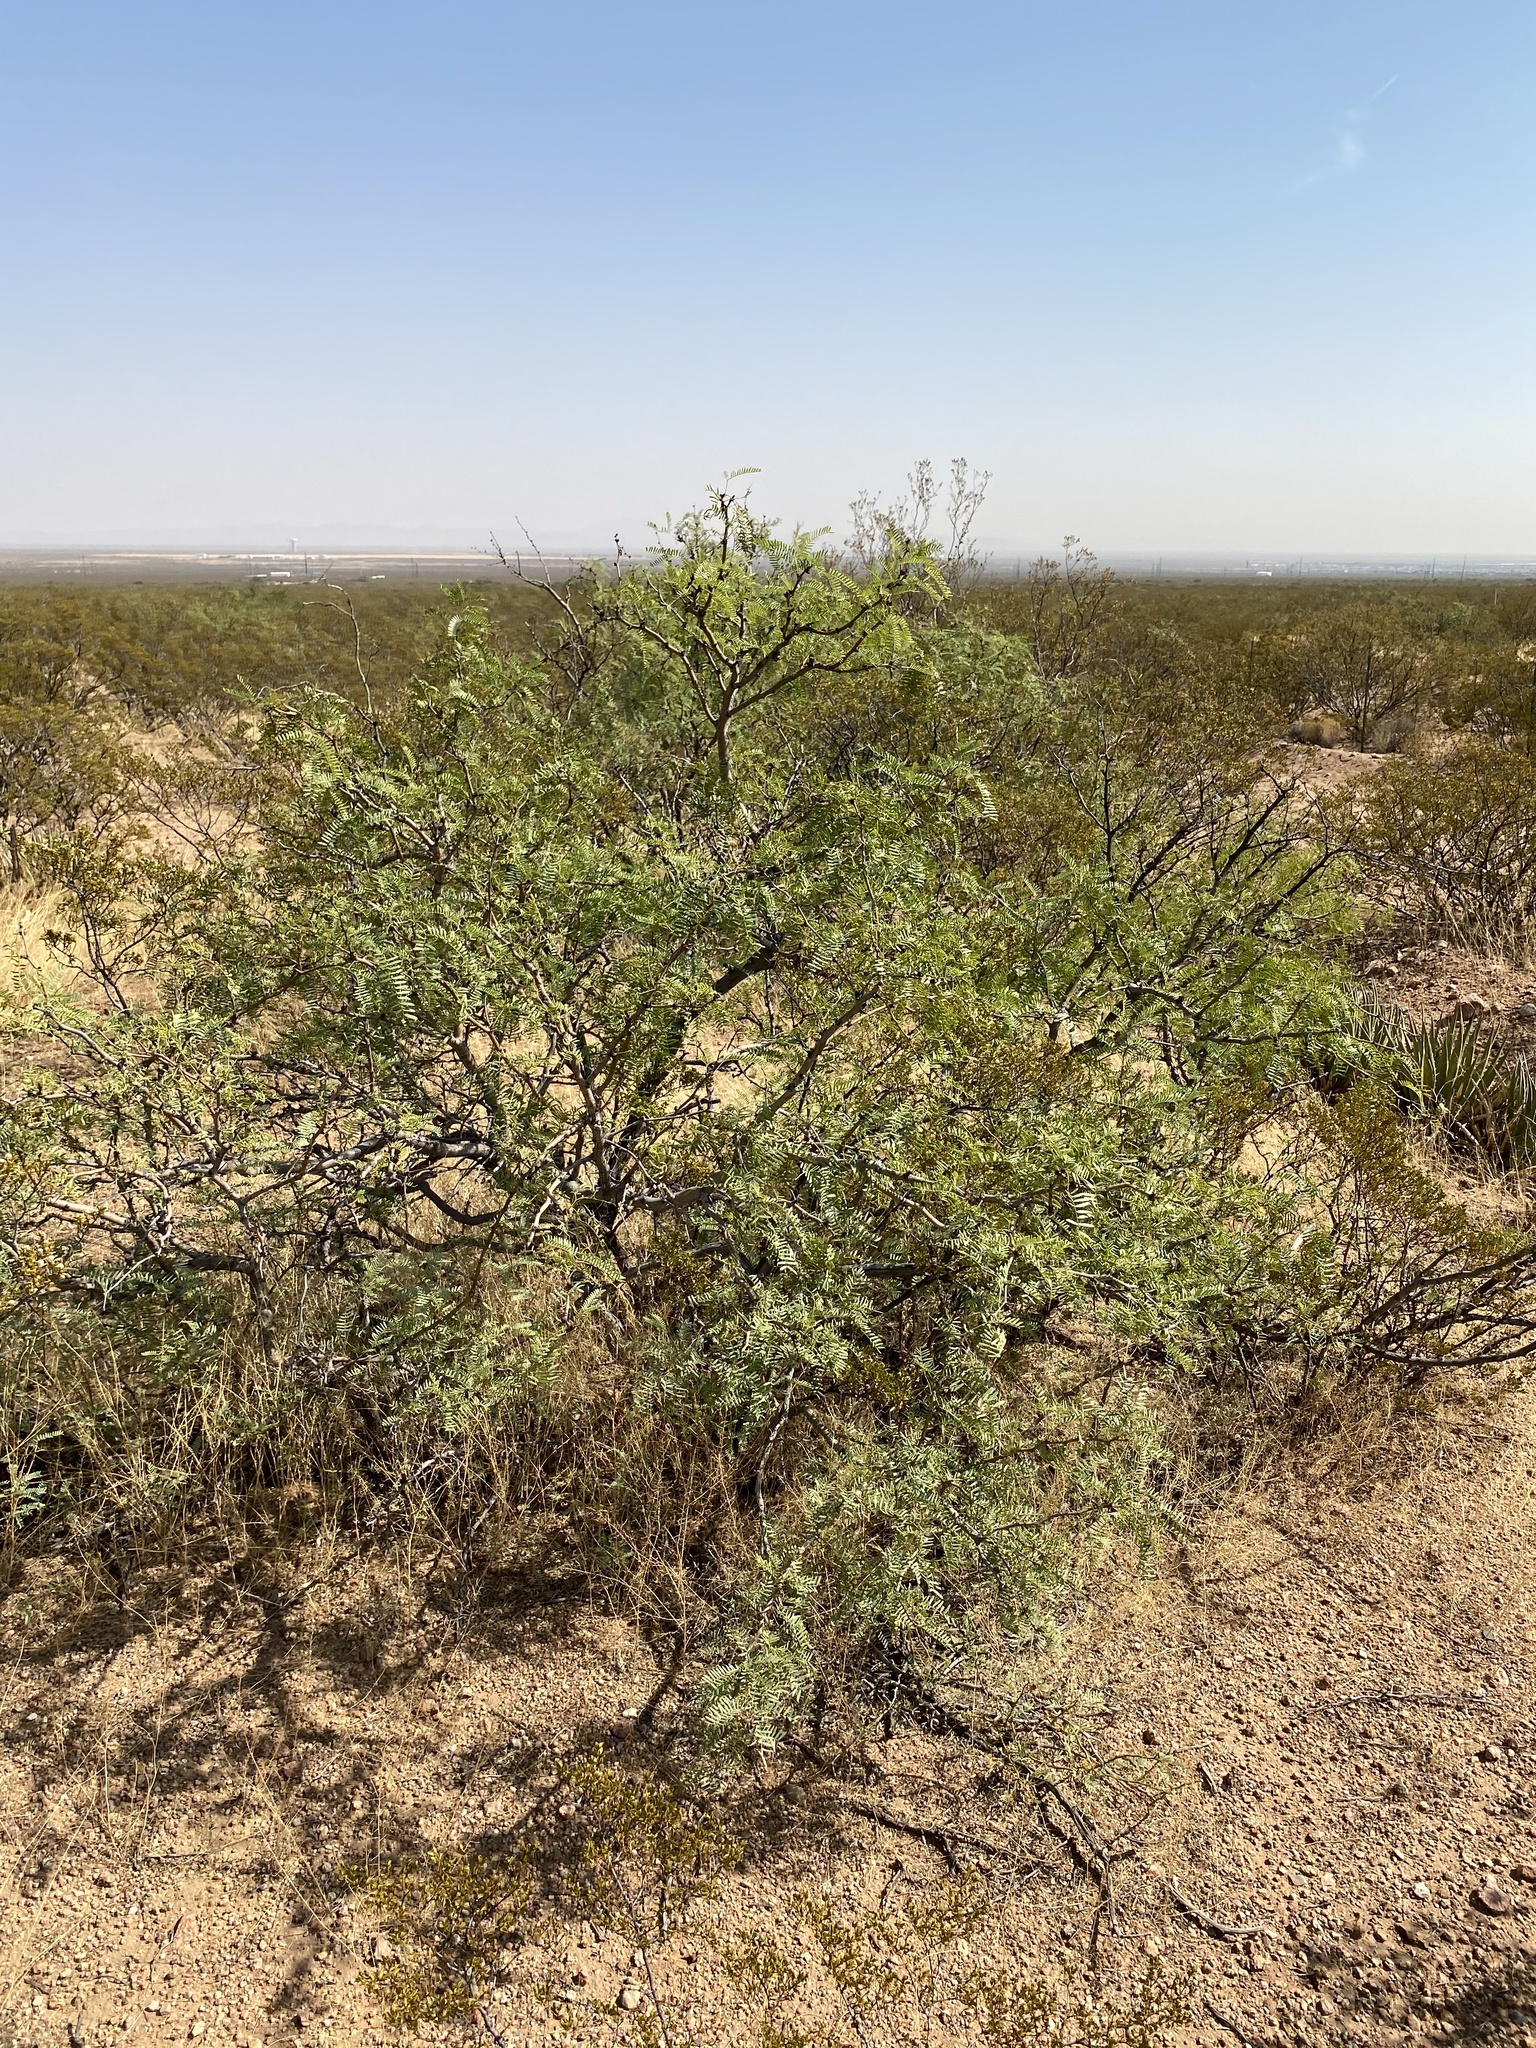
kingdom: Plantae
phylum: Tracheophyta
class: Magnoliopsida
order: Fabales
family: Fabaceae
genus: Prosopis
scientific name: Prosopis glandulosa
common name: Honey mesquite
